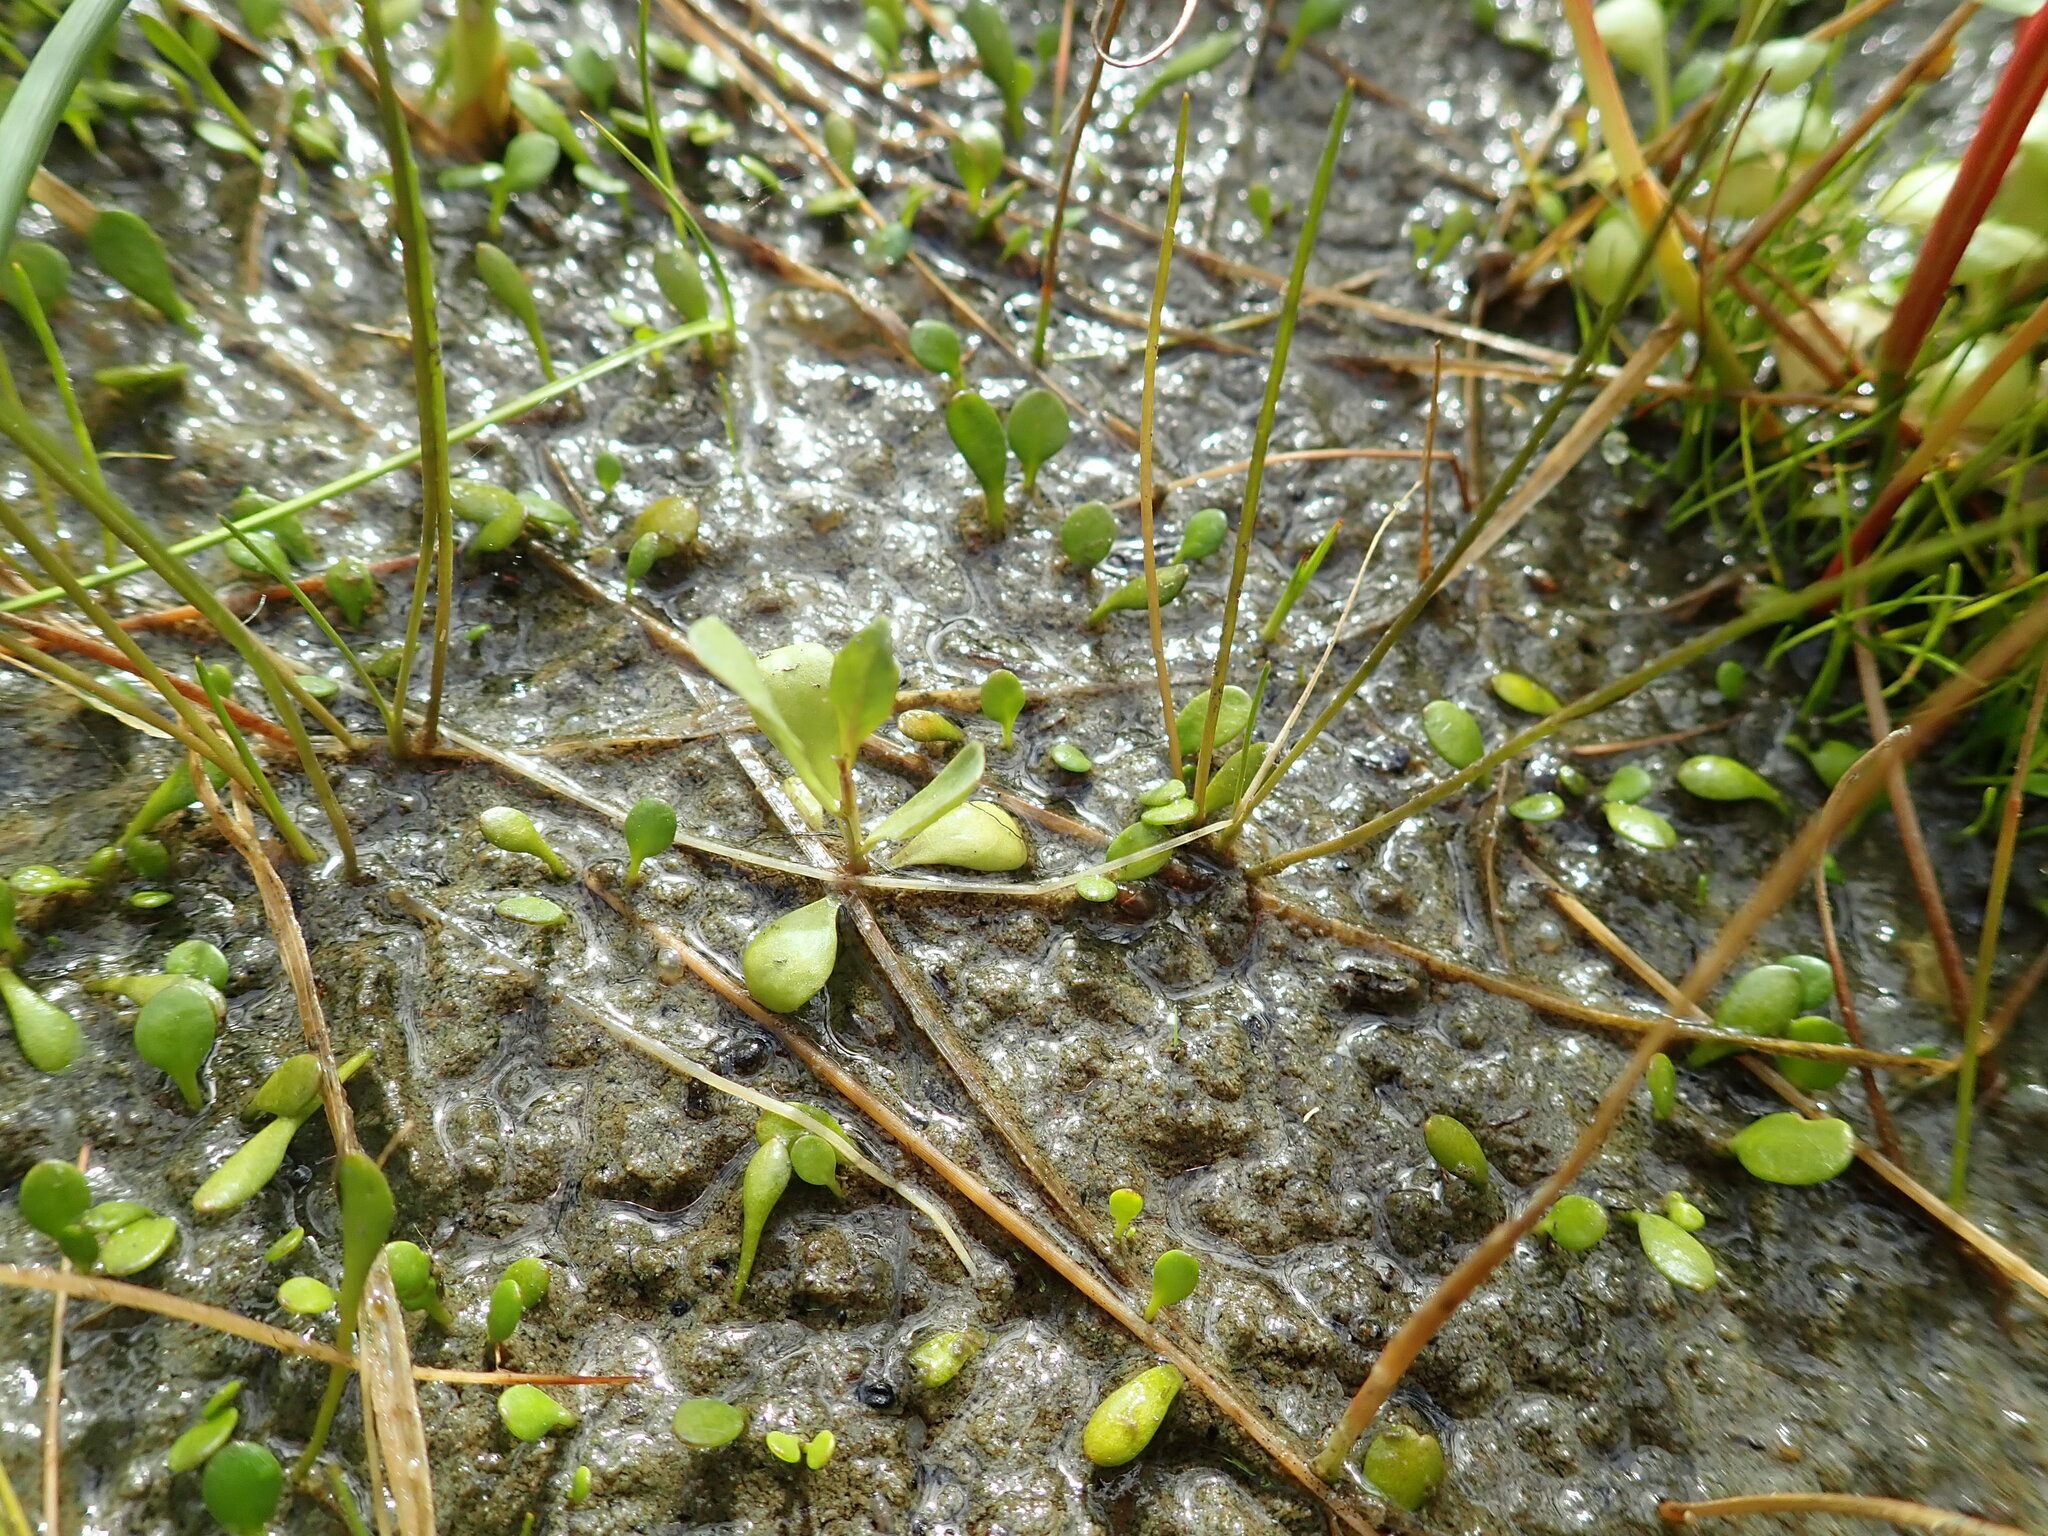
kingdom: Plantae
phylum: Tracheophyta
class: Magnoliopsida
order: Asterales
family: Campanulaceae
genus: Lobelia
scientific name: Lobelia anceps
